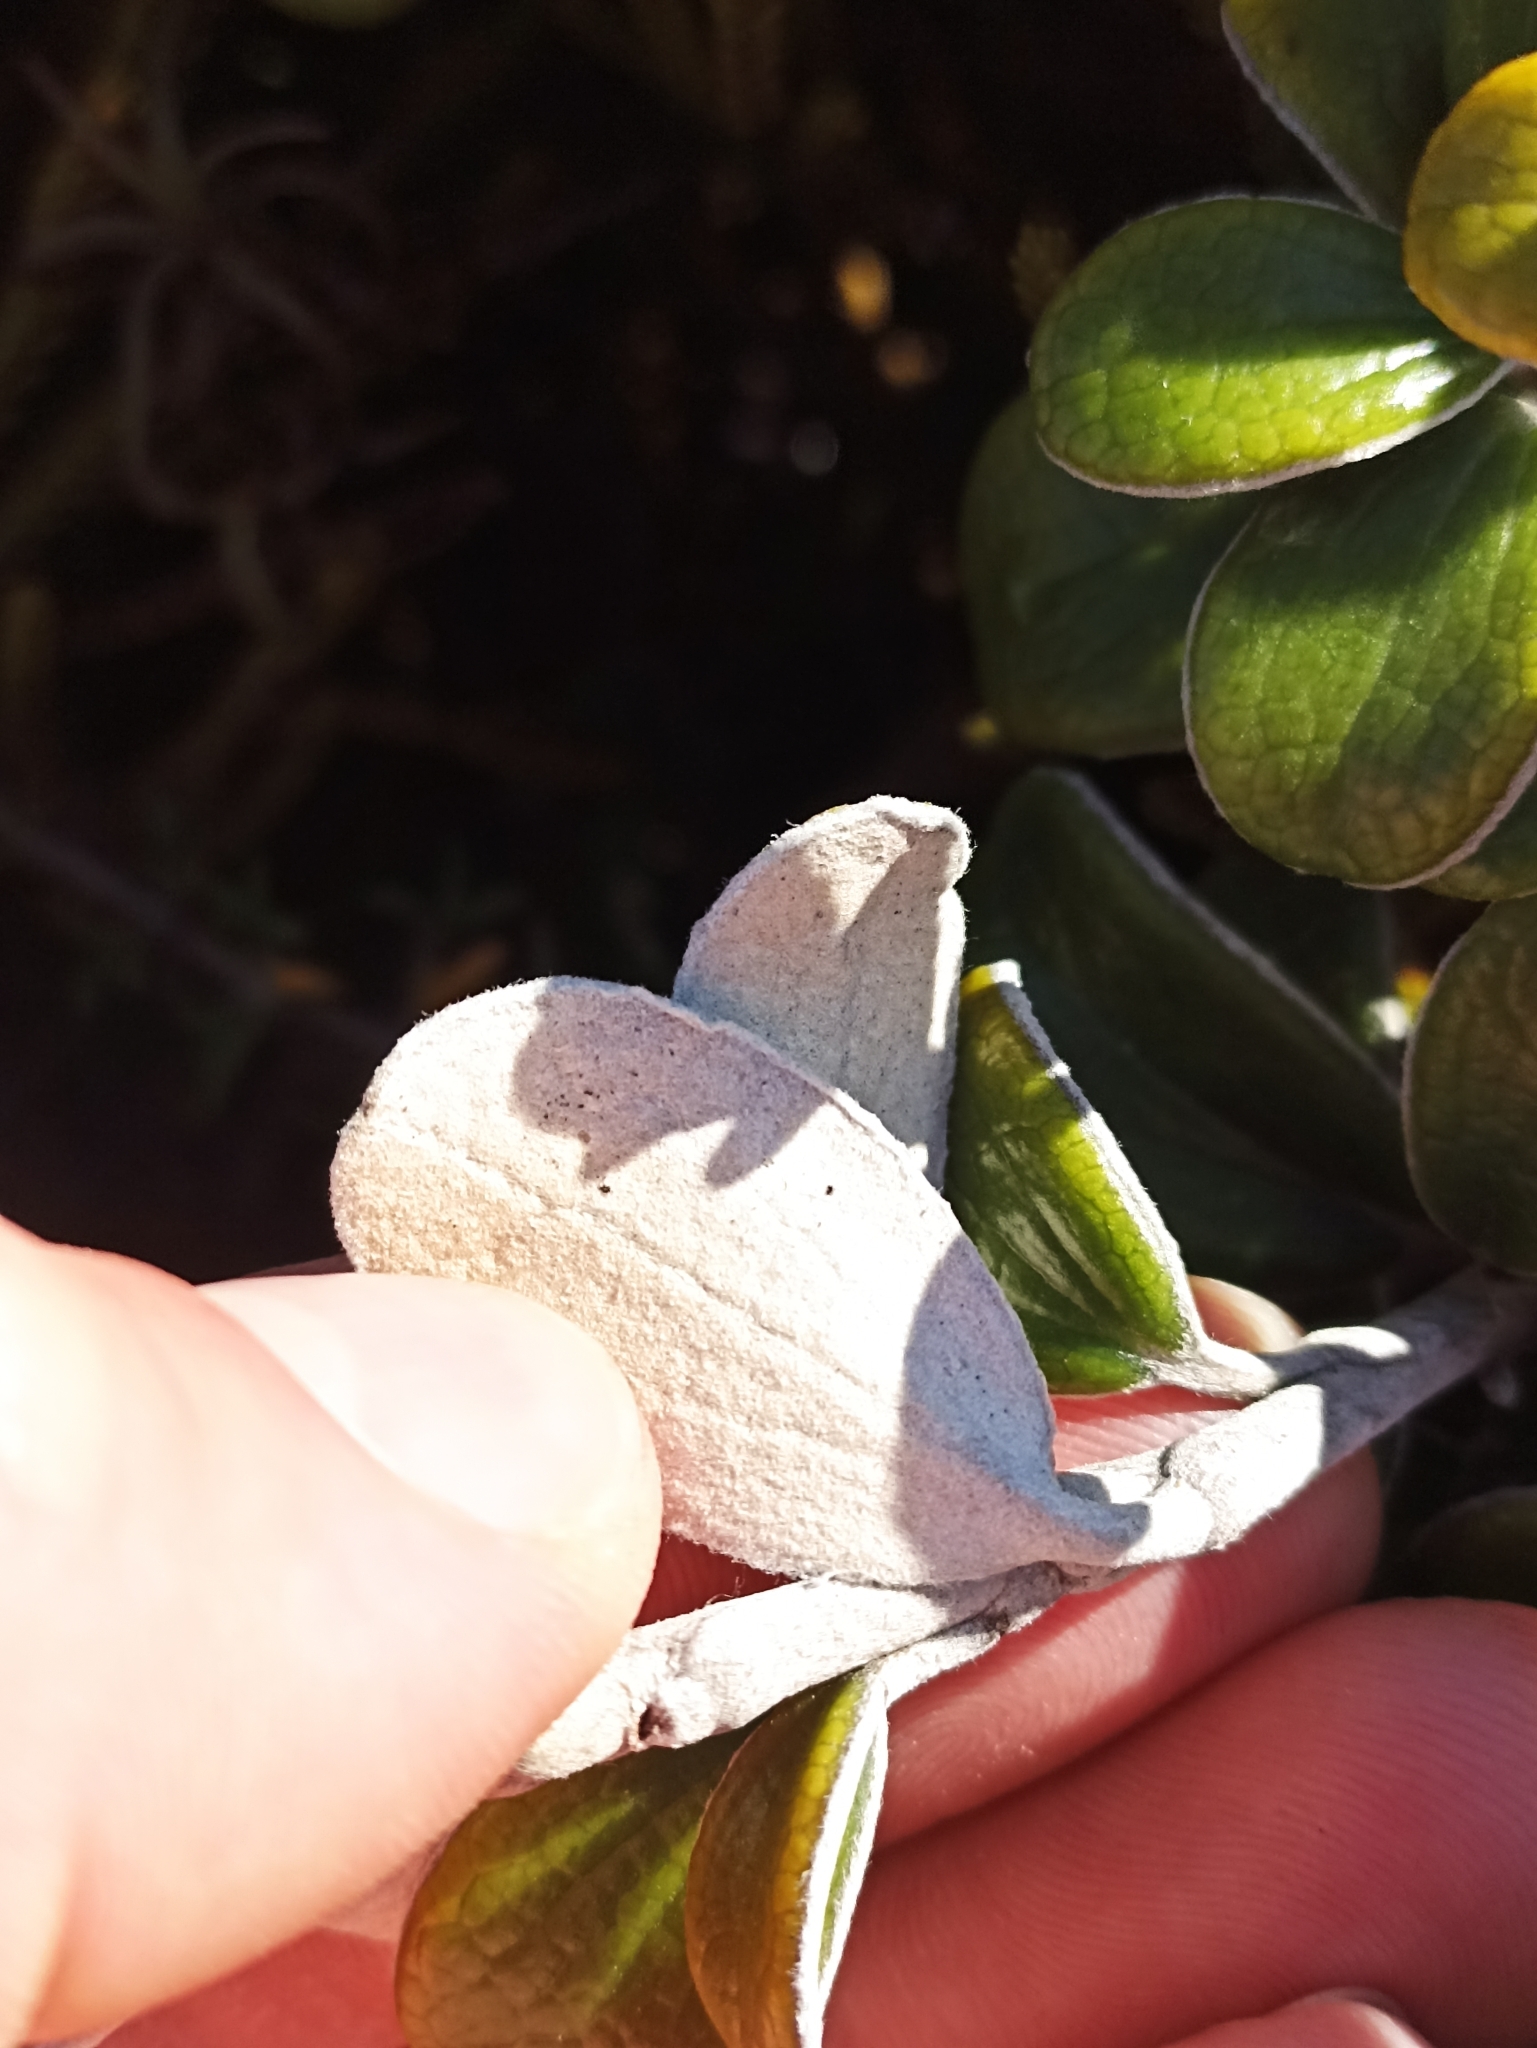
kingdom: Plantae
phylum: Tracheophyta
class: Magnoliopsida
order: Asterales
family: Asteraceae
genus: Brachyglottis
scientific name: Brachyglottis bidwillii
